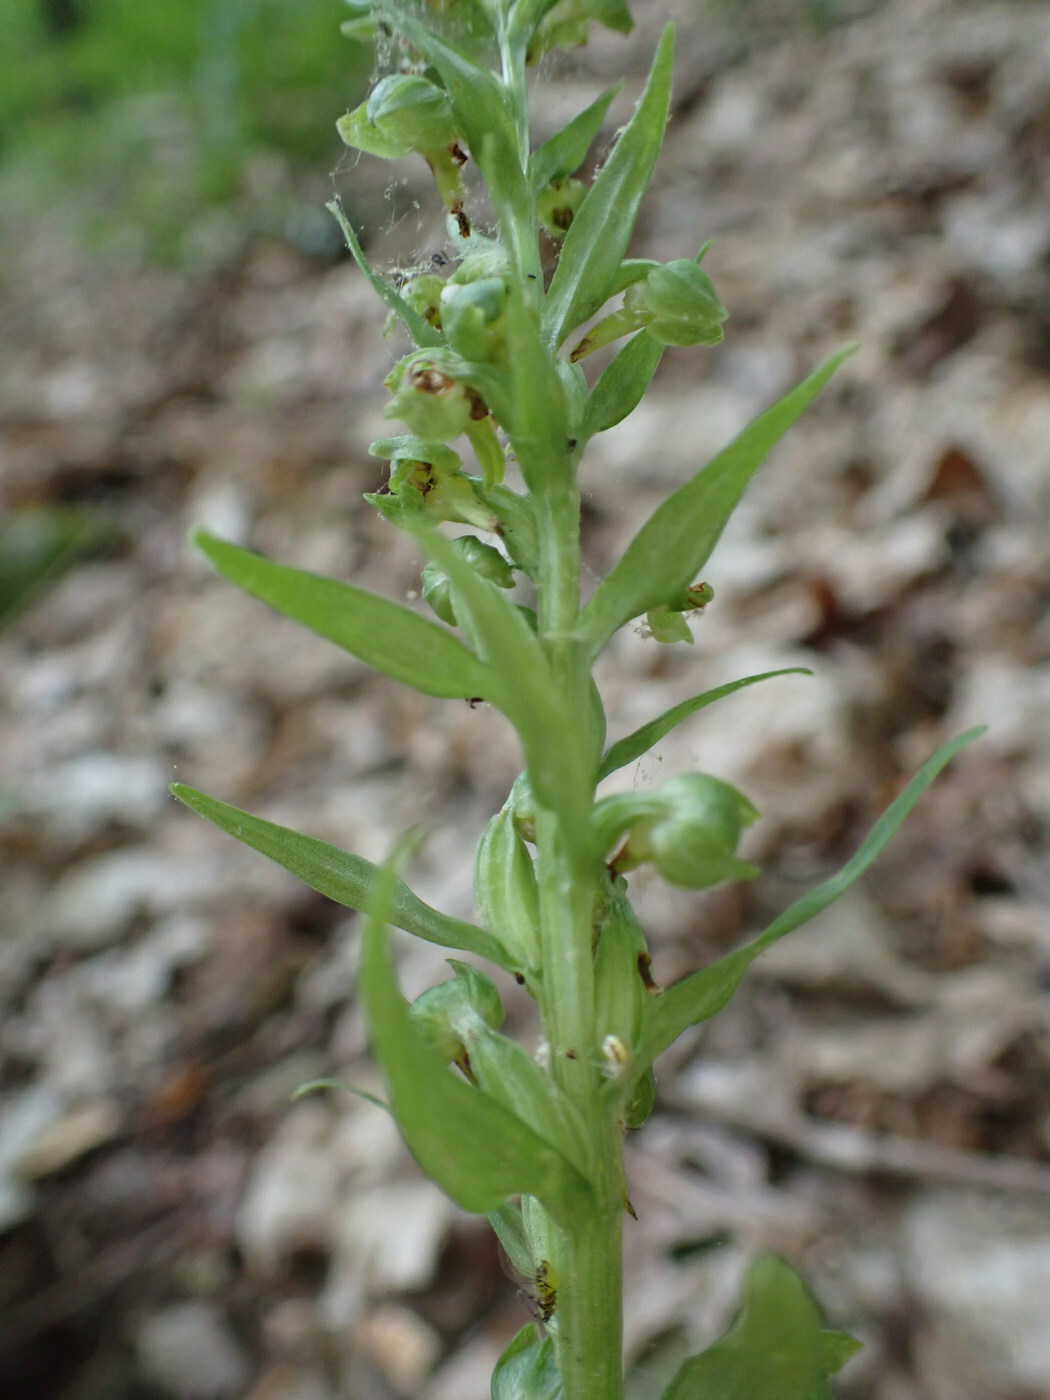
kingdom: Plantae
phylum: Tracheophyta
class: Liliopsida
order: Asparagales
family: Orchidaceae
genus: Dactylorhiza
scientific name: Dactylorhiza viridis
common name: Longbract frog orchid
